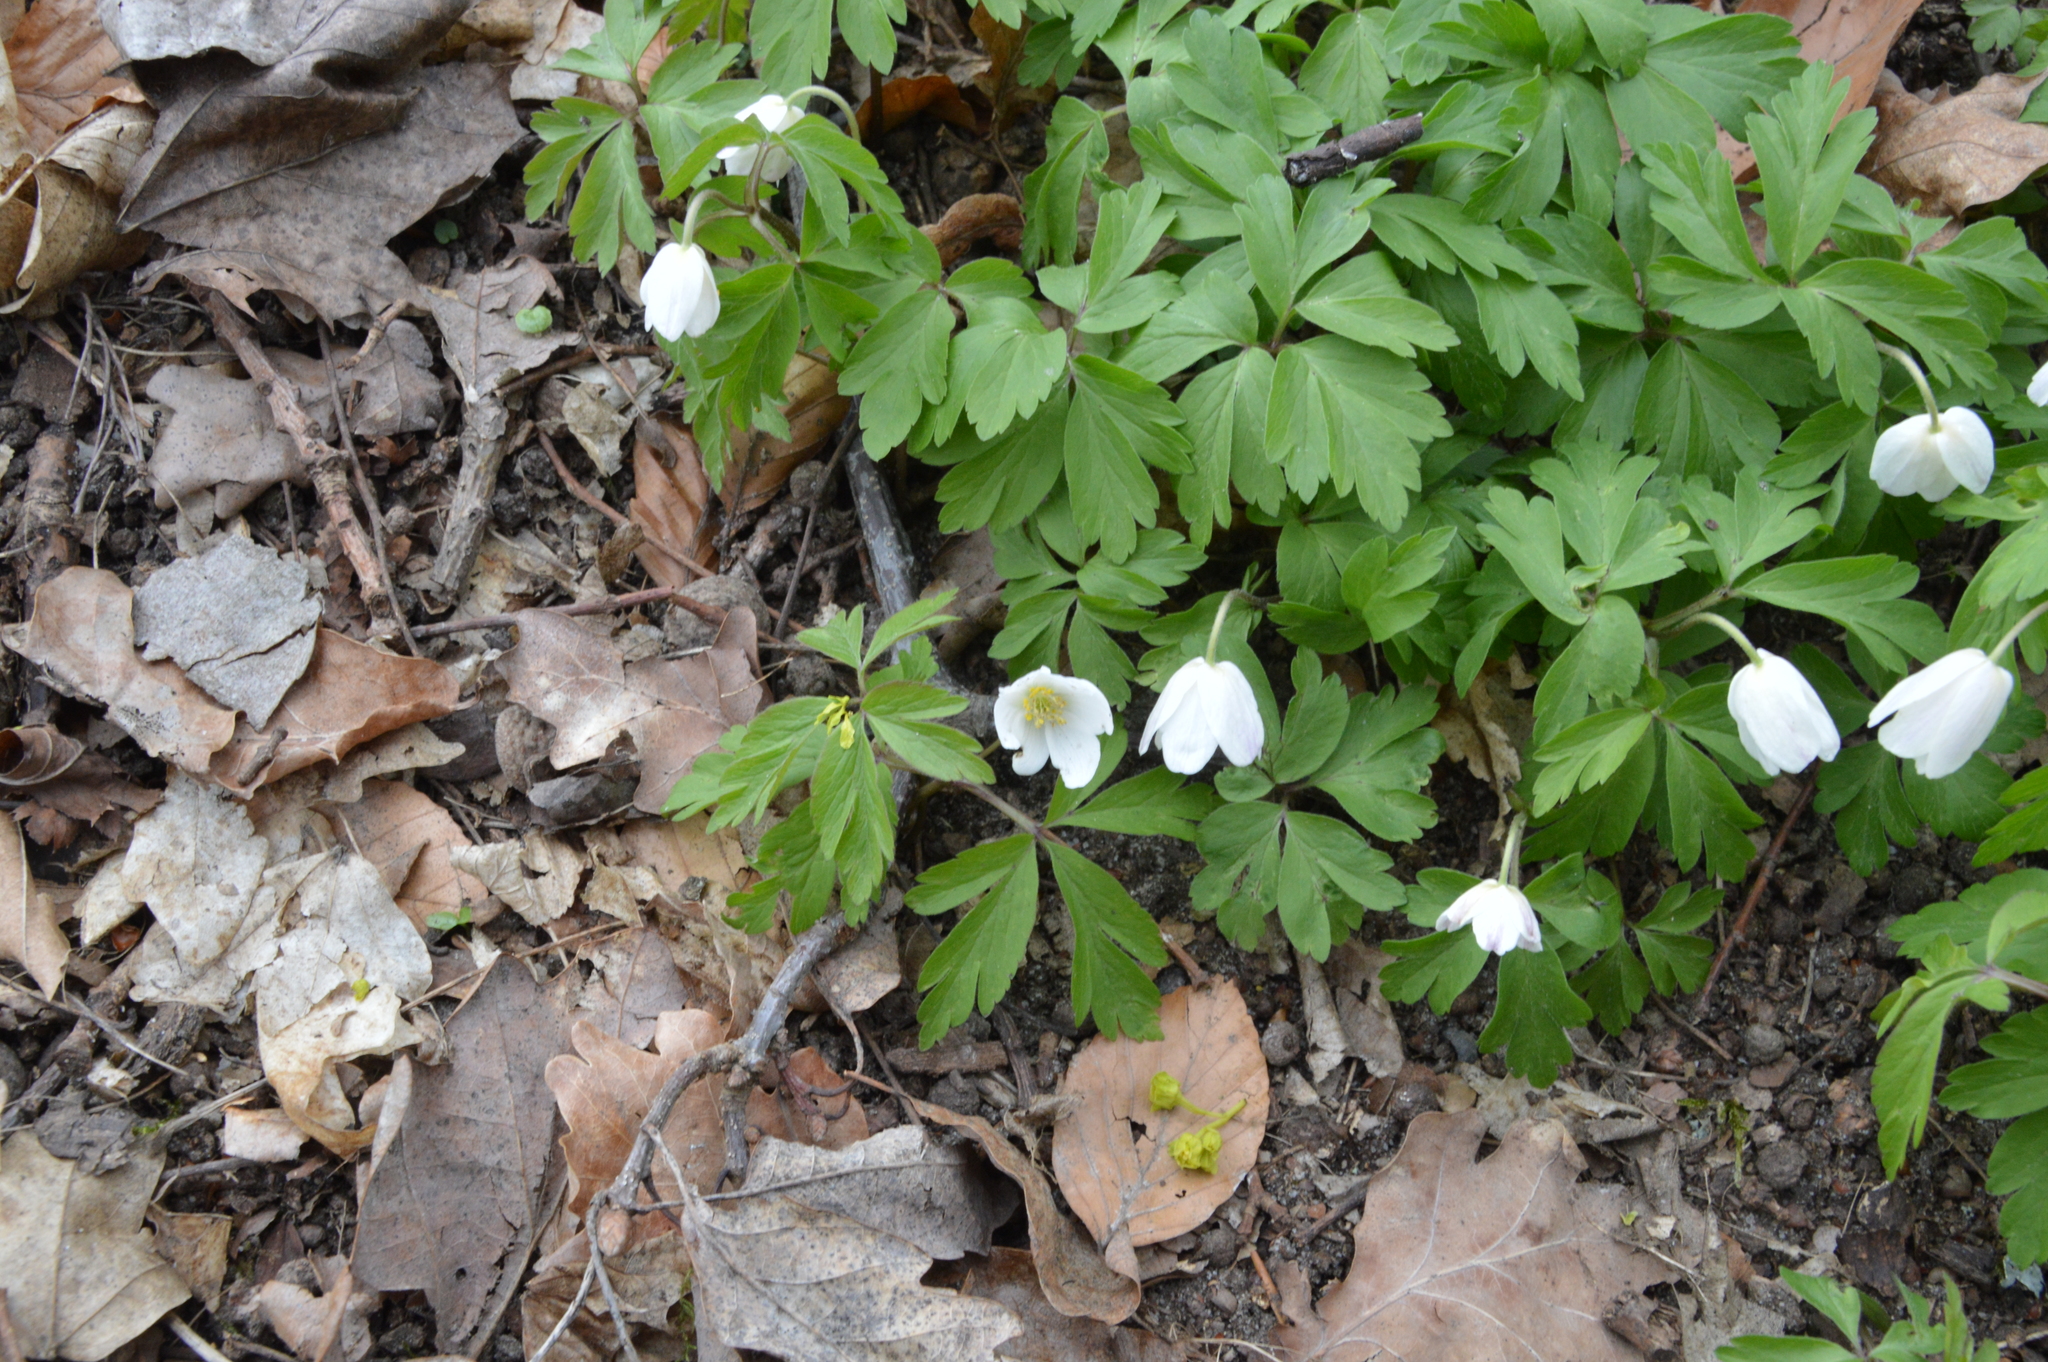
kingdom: Plantae
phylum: Tracheophyta
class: Magnoliopsida
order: Ranunculales
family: Ranunculaceae
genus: Anemone
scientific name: Anemone nemorosa
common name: Wood anemone
